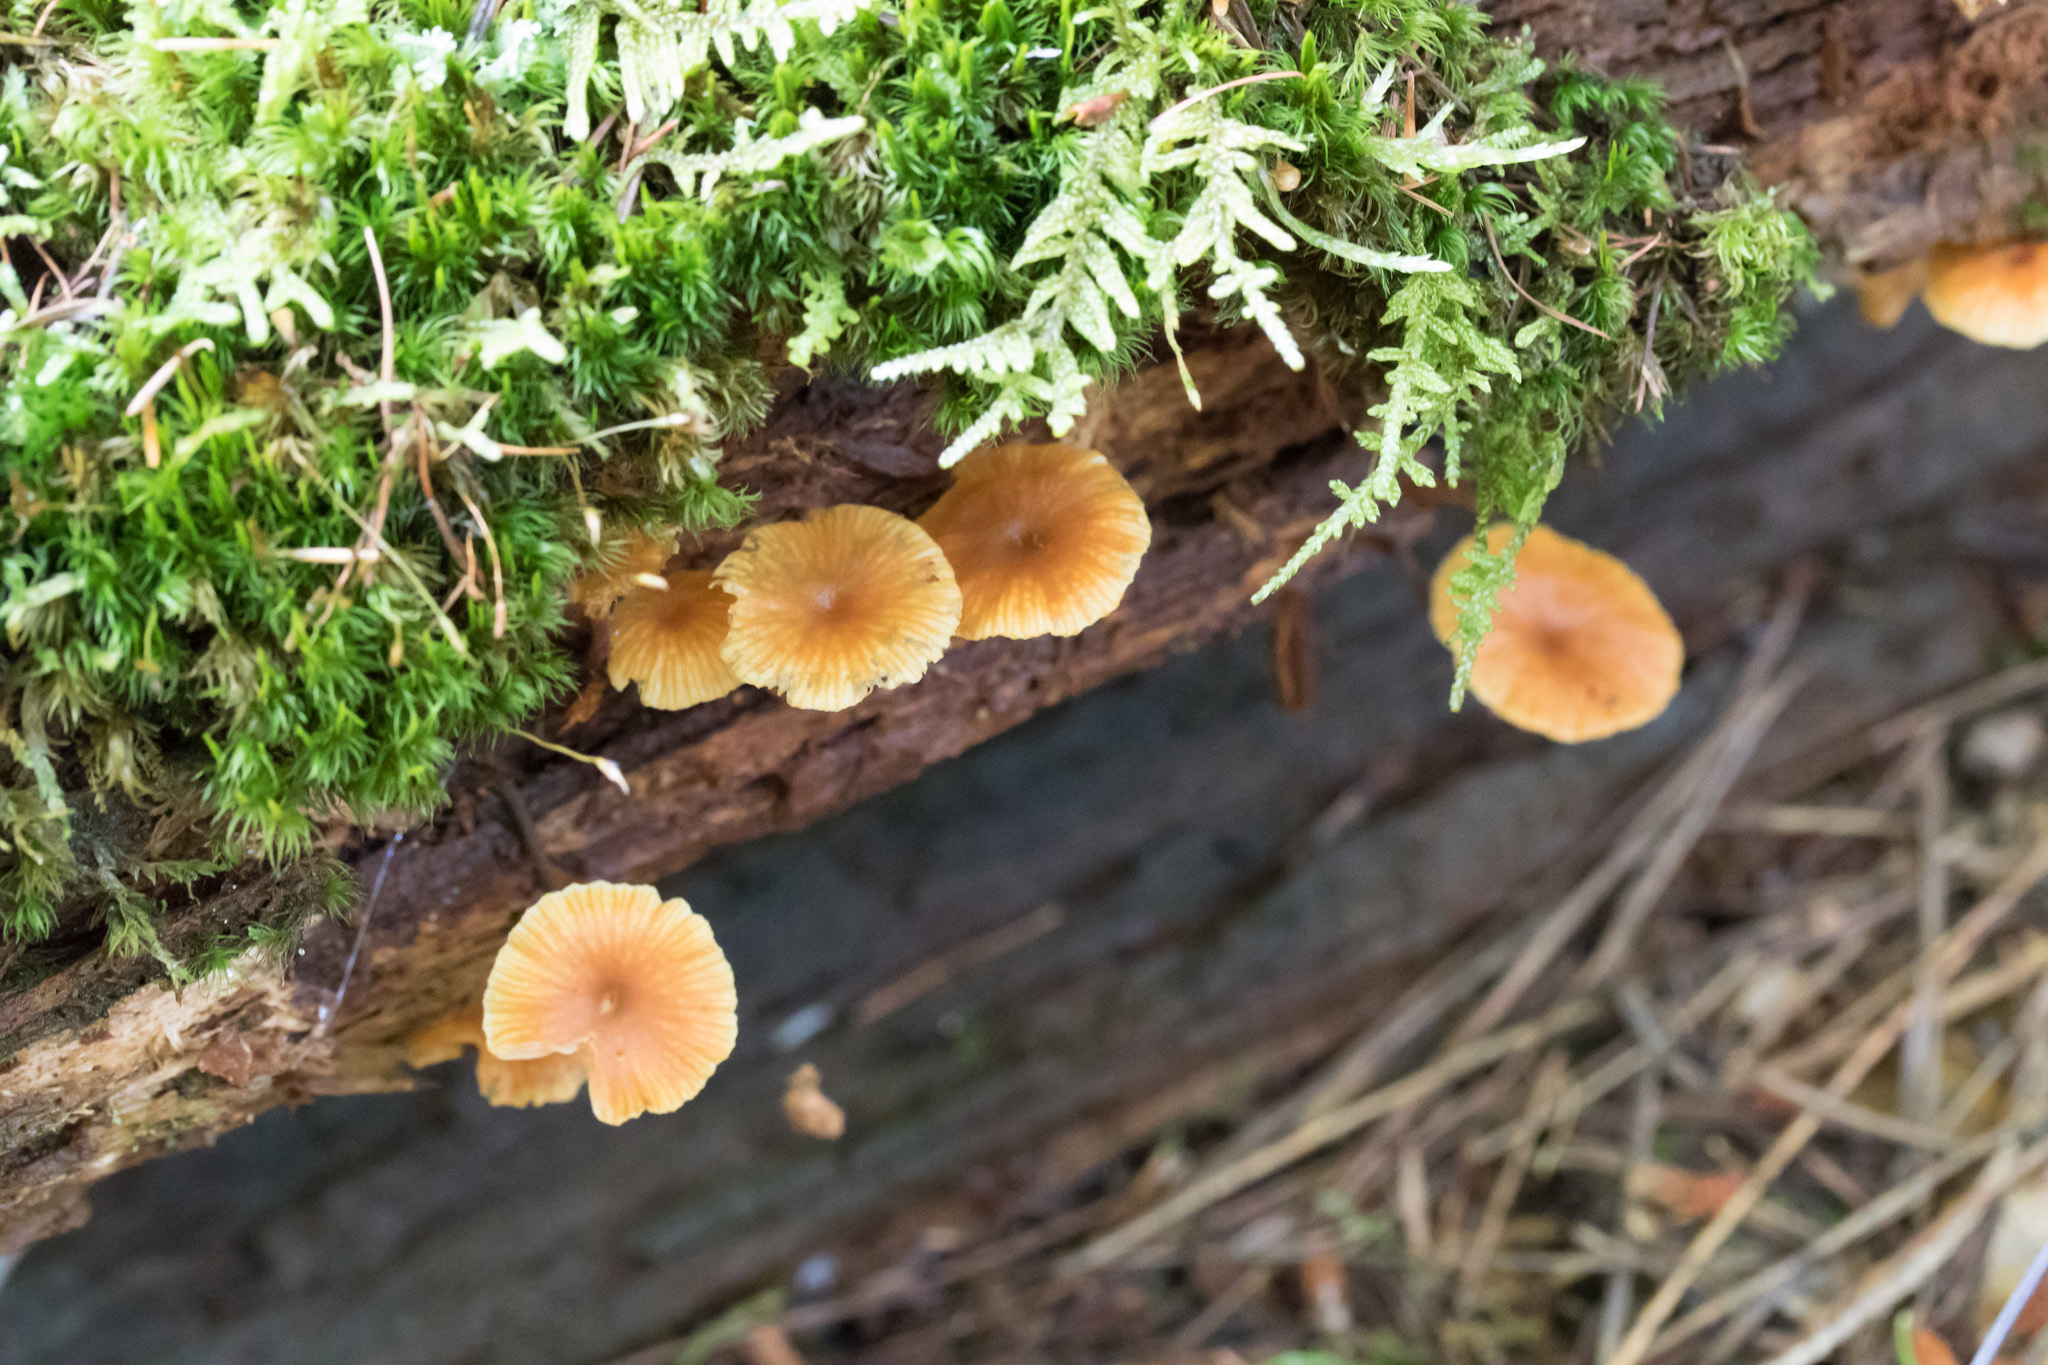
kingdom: Fungi
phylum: Basidiomycota
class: Agaricomycetes
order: Agaricales
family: Mycenaceae
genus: Xeromphalina
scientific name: Xeromphalina campanella
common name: Pinewood gingertail
